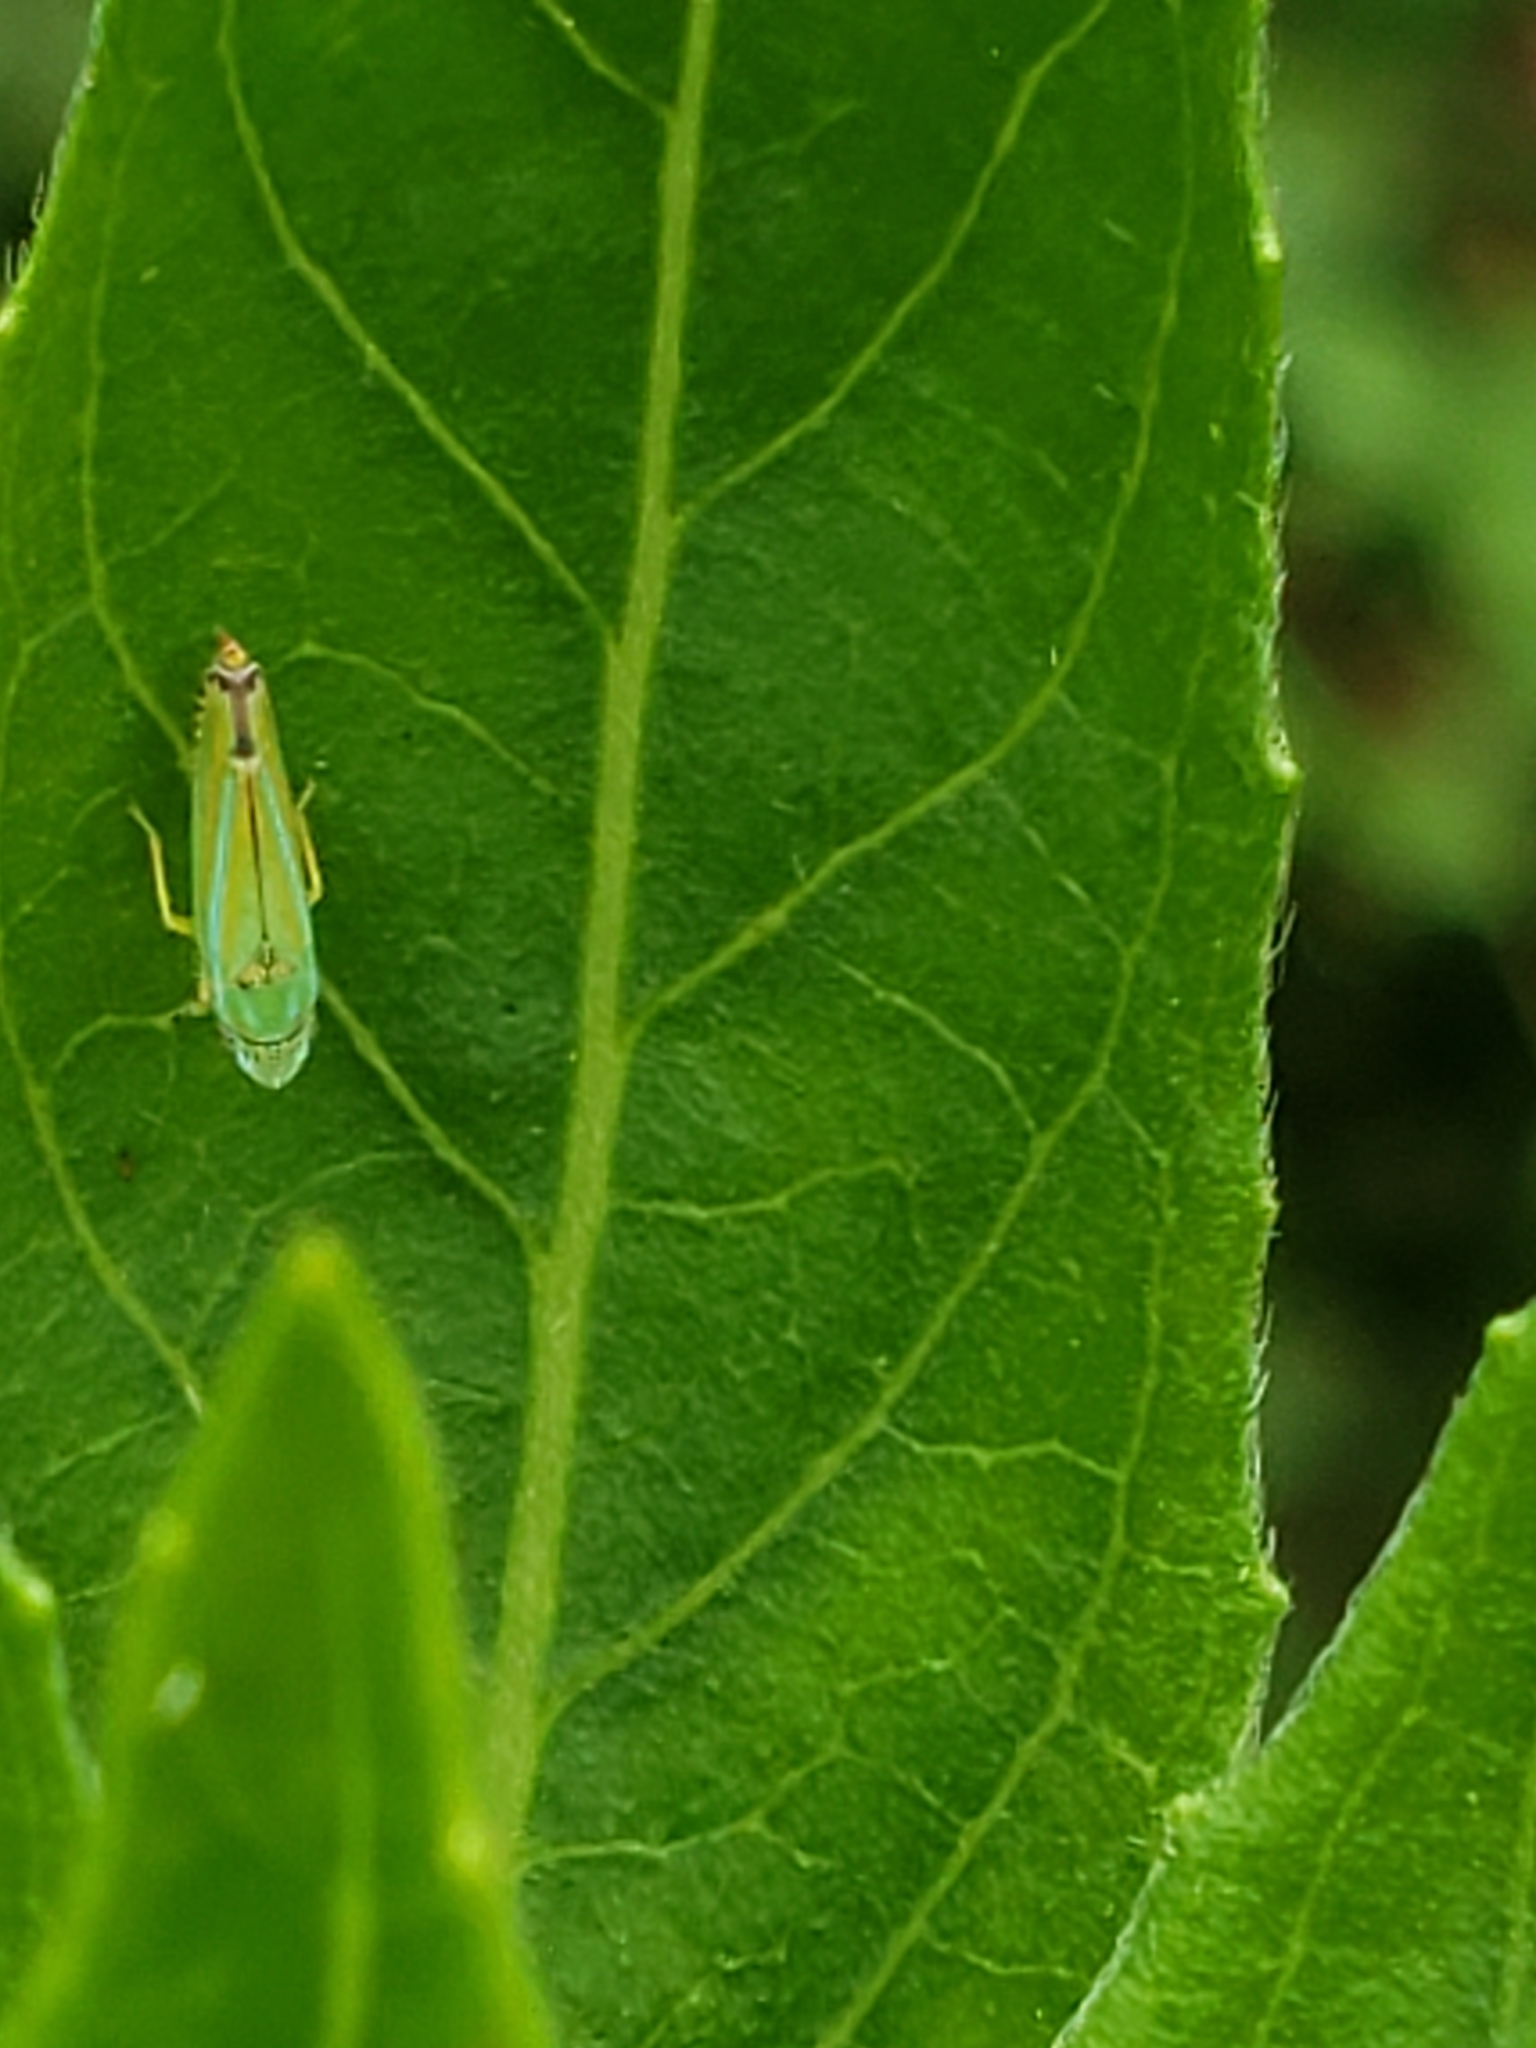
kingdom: Animalia
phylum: Arthropoda
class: Insecta
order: Hemiptera
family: Cicadellidae
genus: Graphocephala
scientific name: Graphocephala versuta
